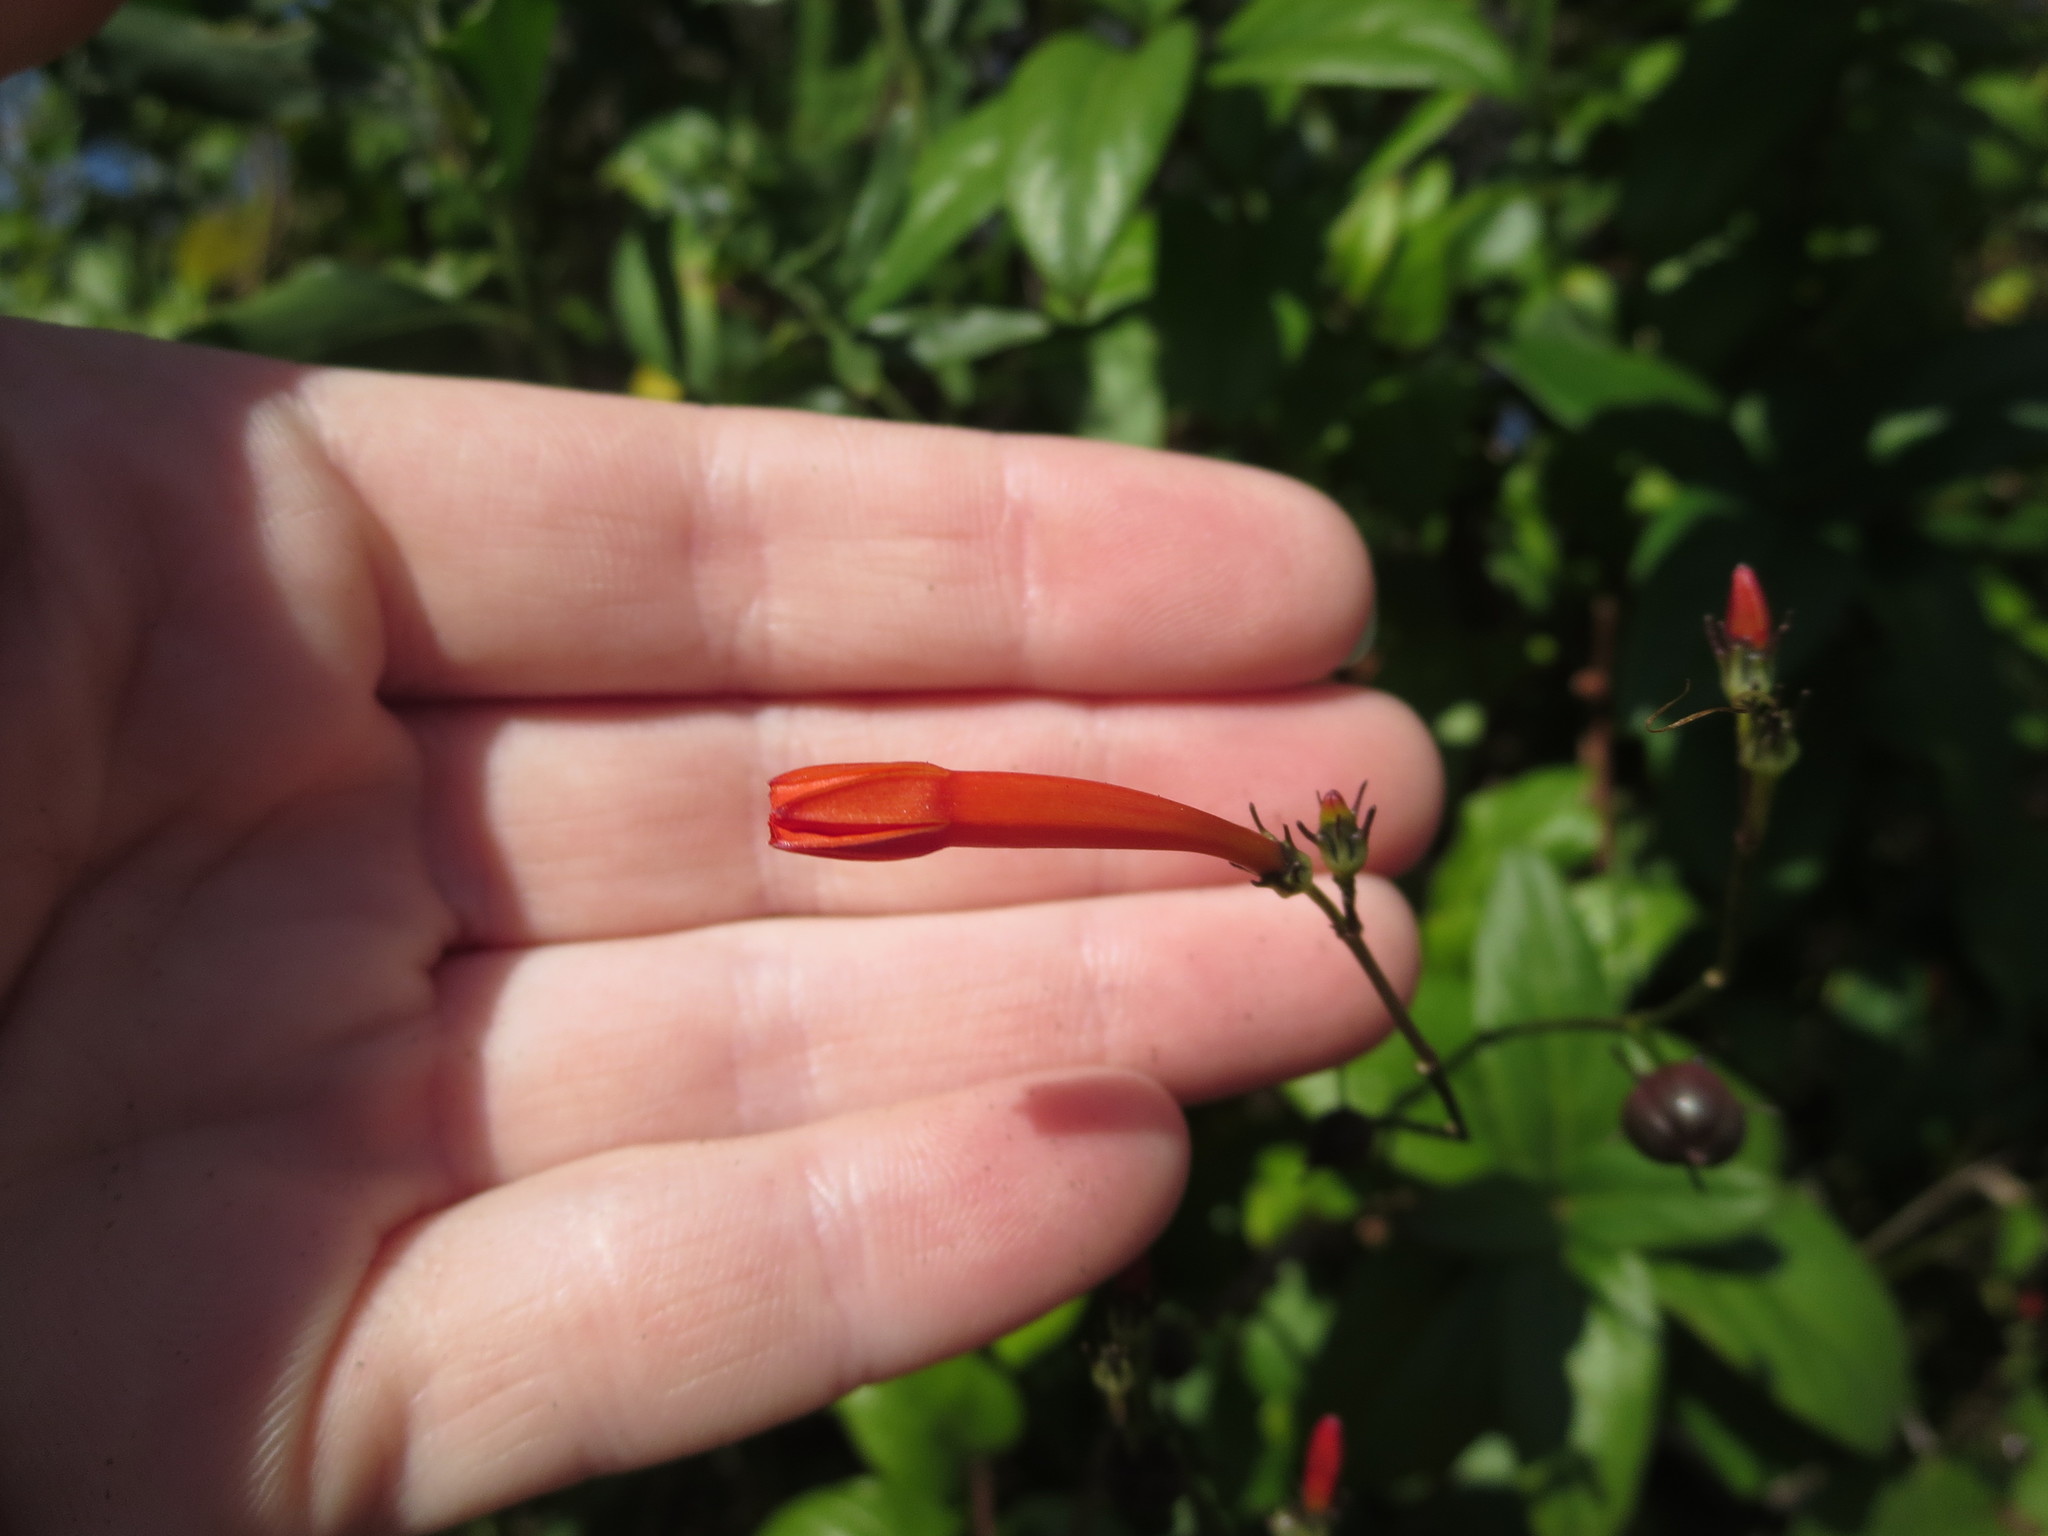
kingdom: Plantae
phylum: Tracheophyta
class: Magnoliopsida
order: Solanales
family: Convolvulaceae
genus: Ipomoea
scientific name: Ipomoea hederifolia
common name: Ivy-leaf morning-glory
